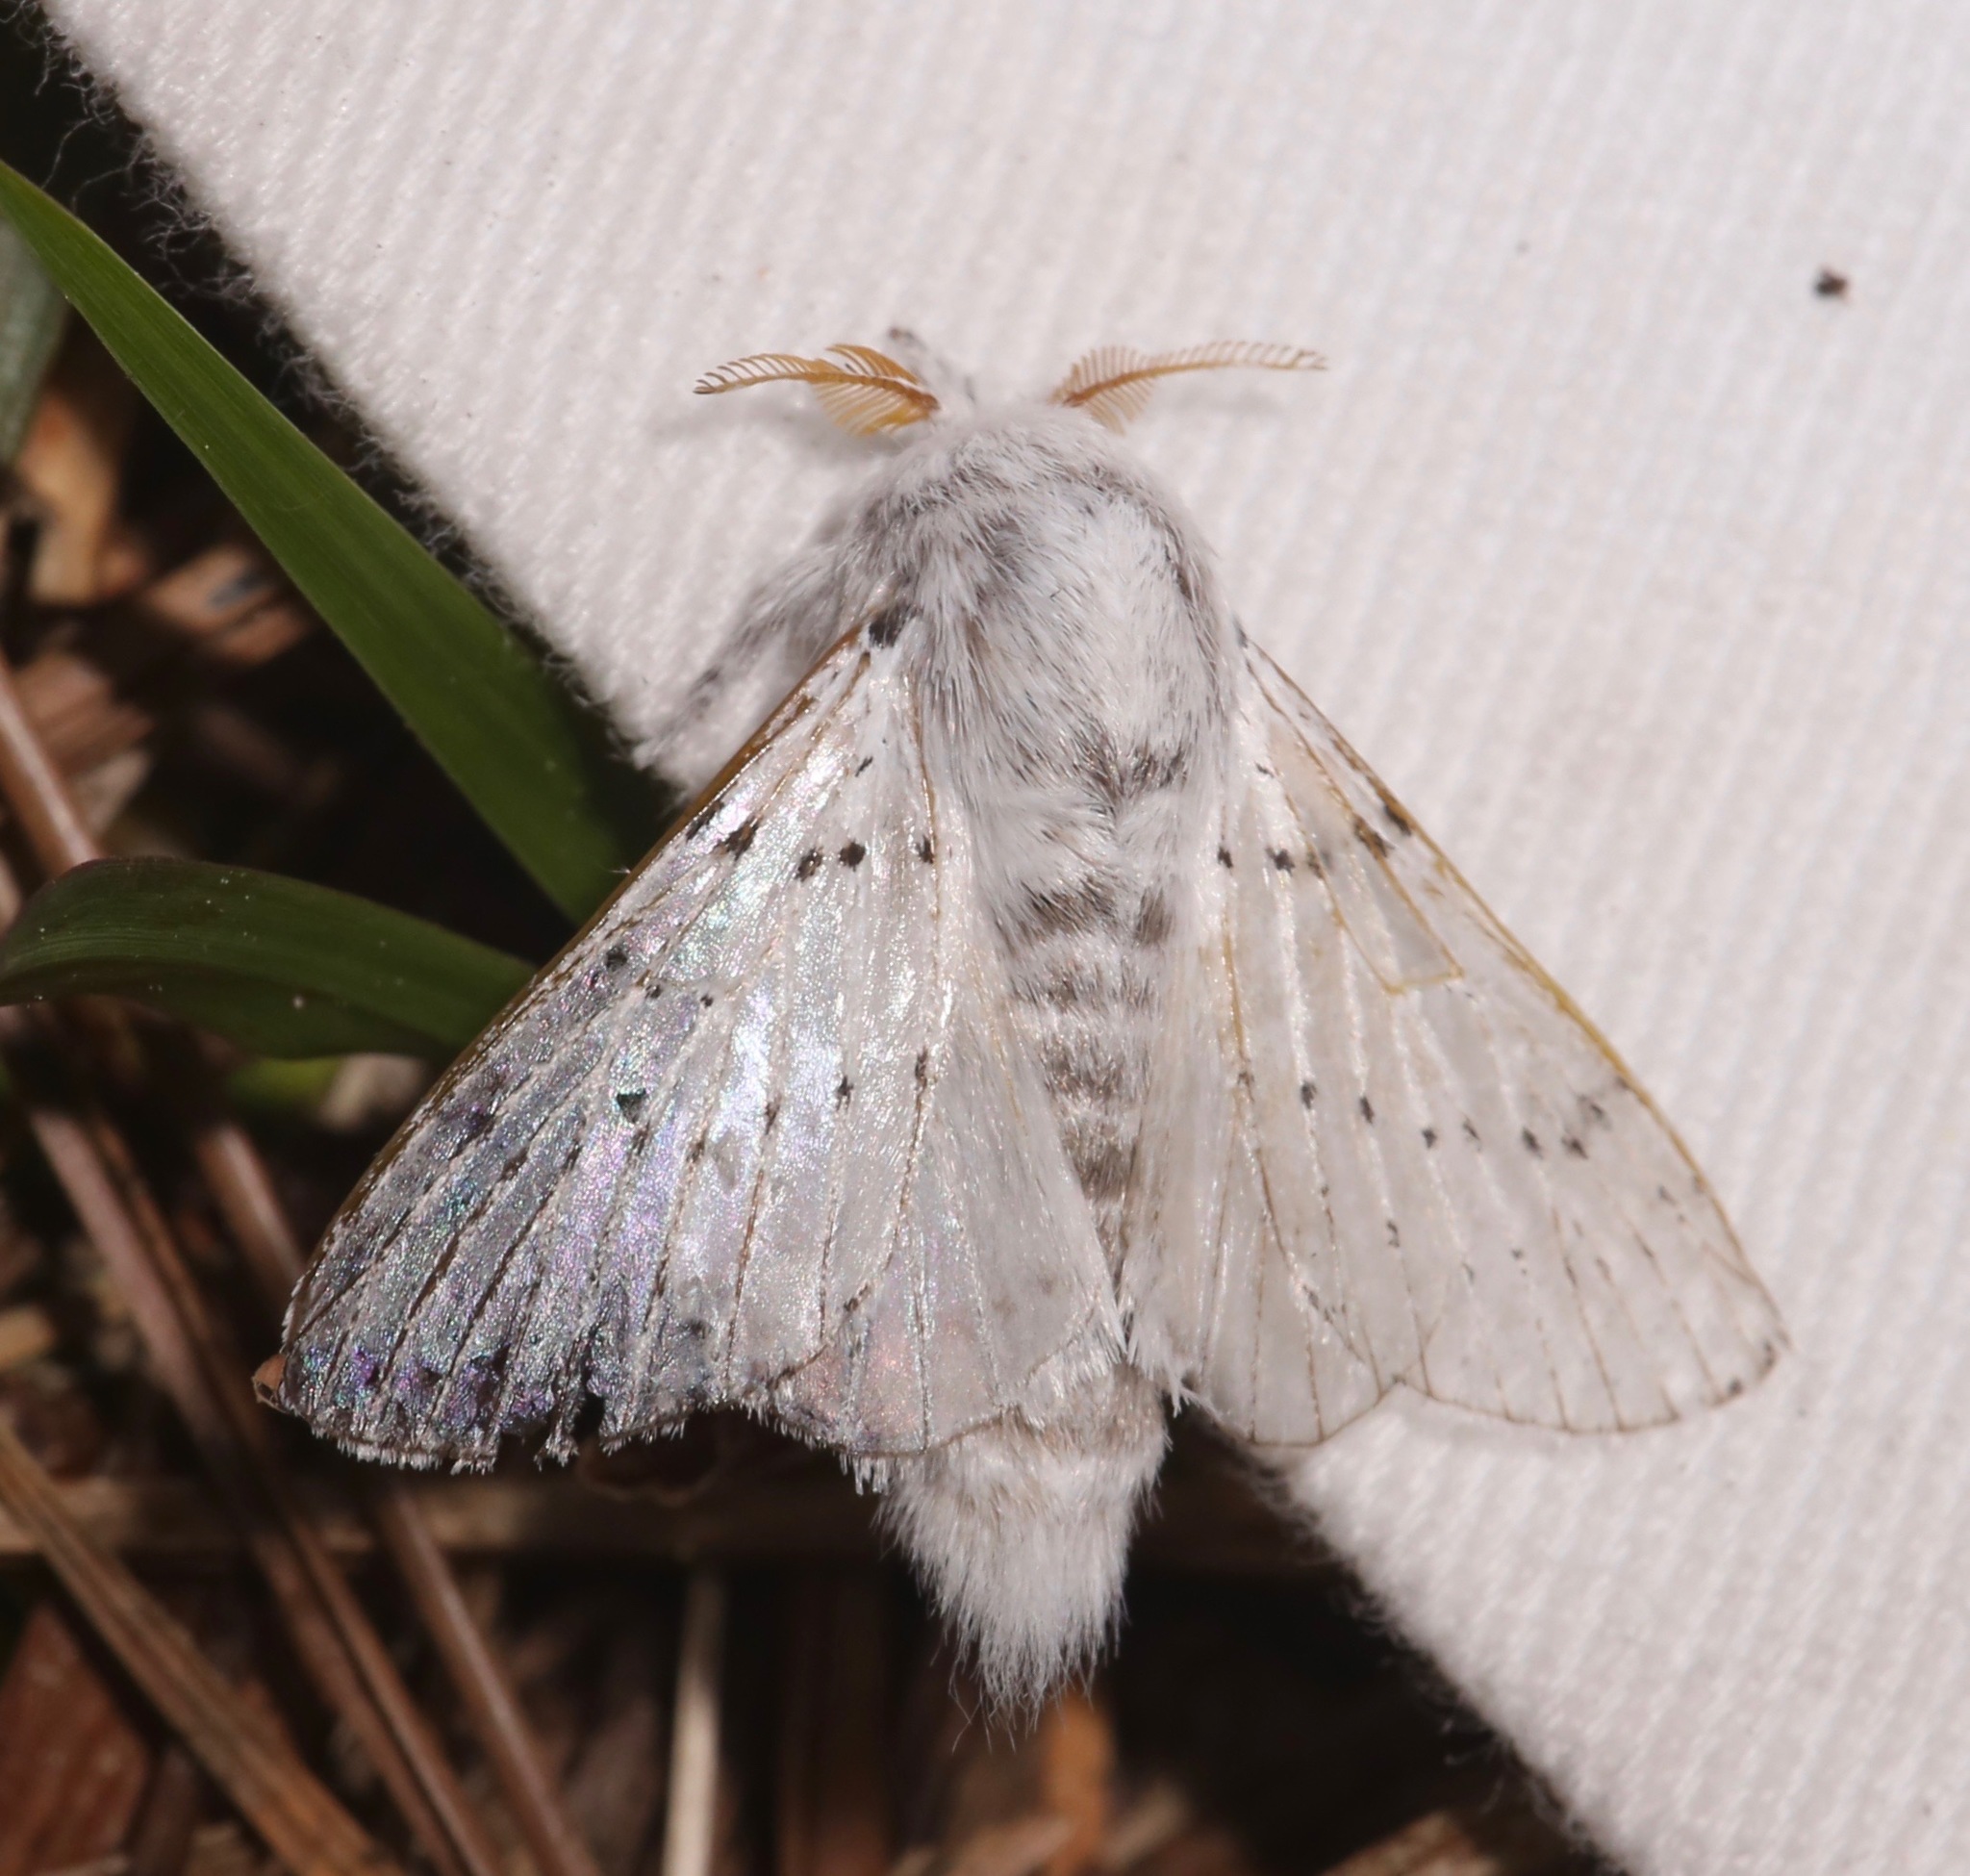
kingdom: Animalia
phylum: Arthropoda
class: Insecta
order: Lepidoptera
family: Lasiocampidae
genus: Artace
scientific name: Artace cribrarius
